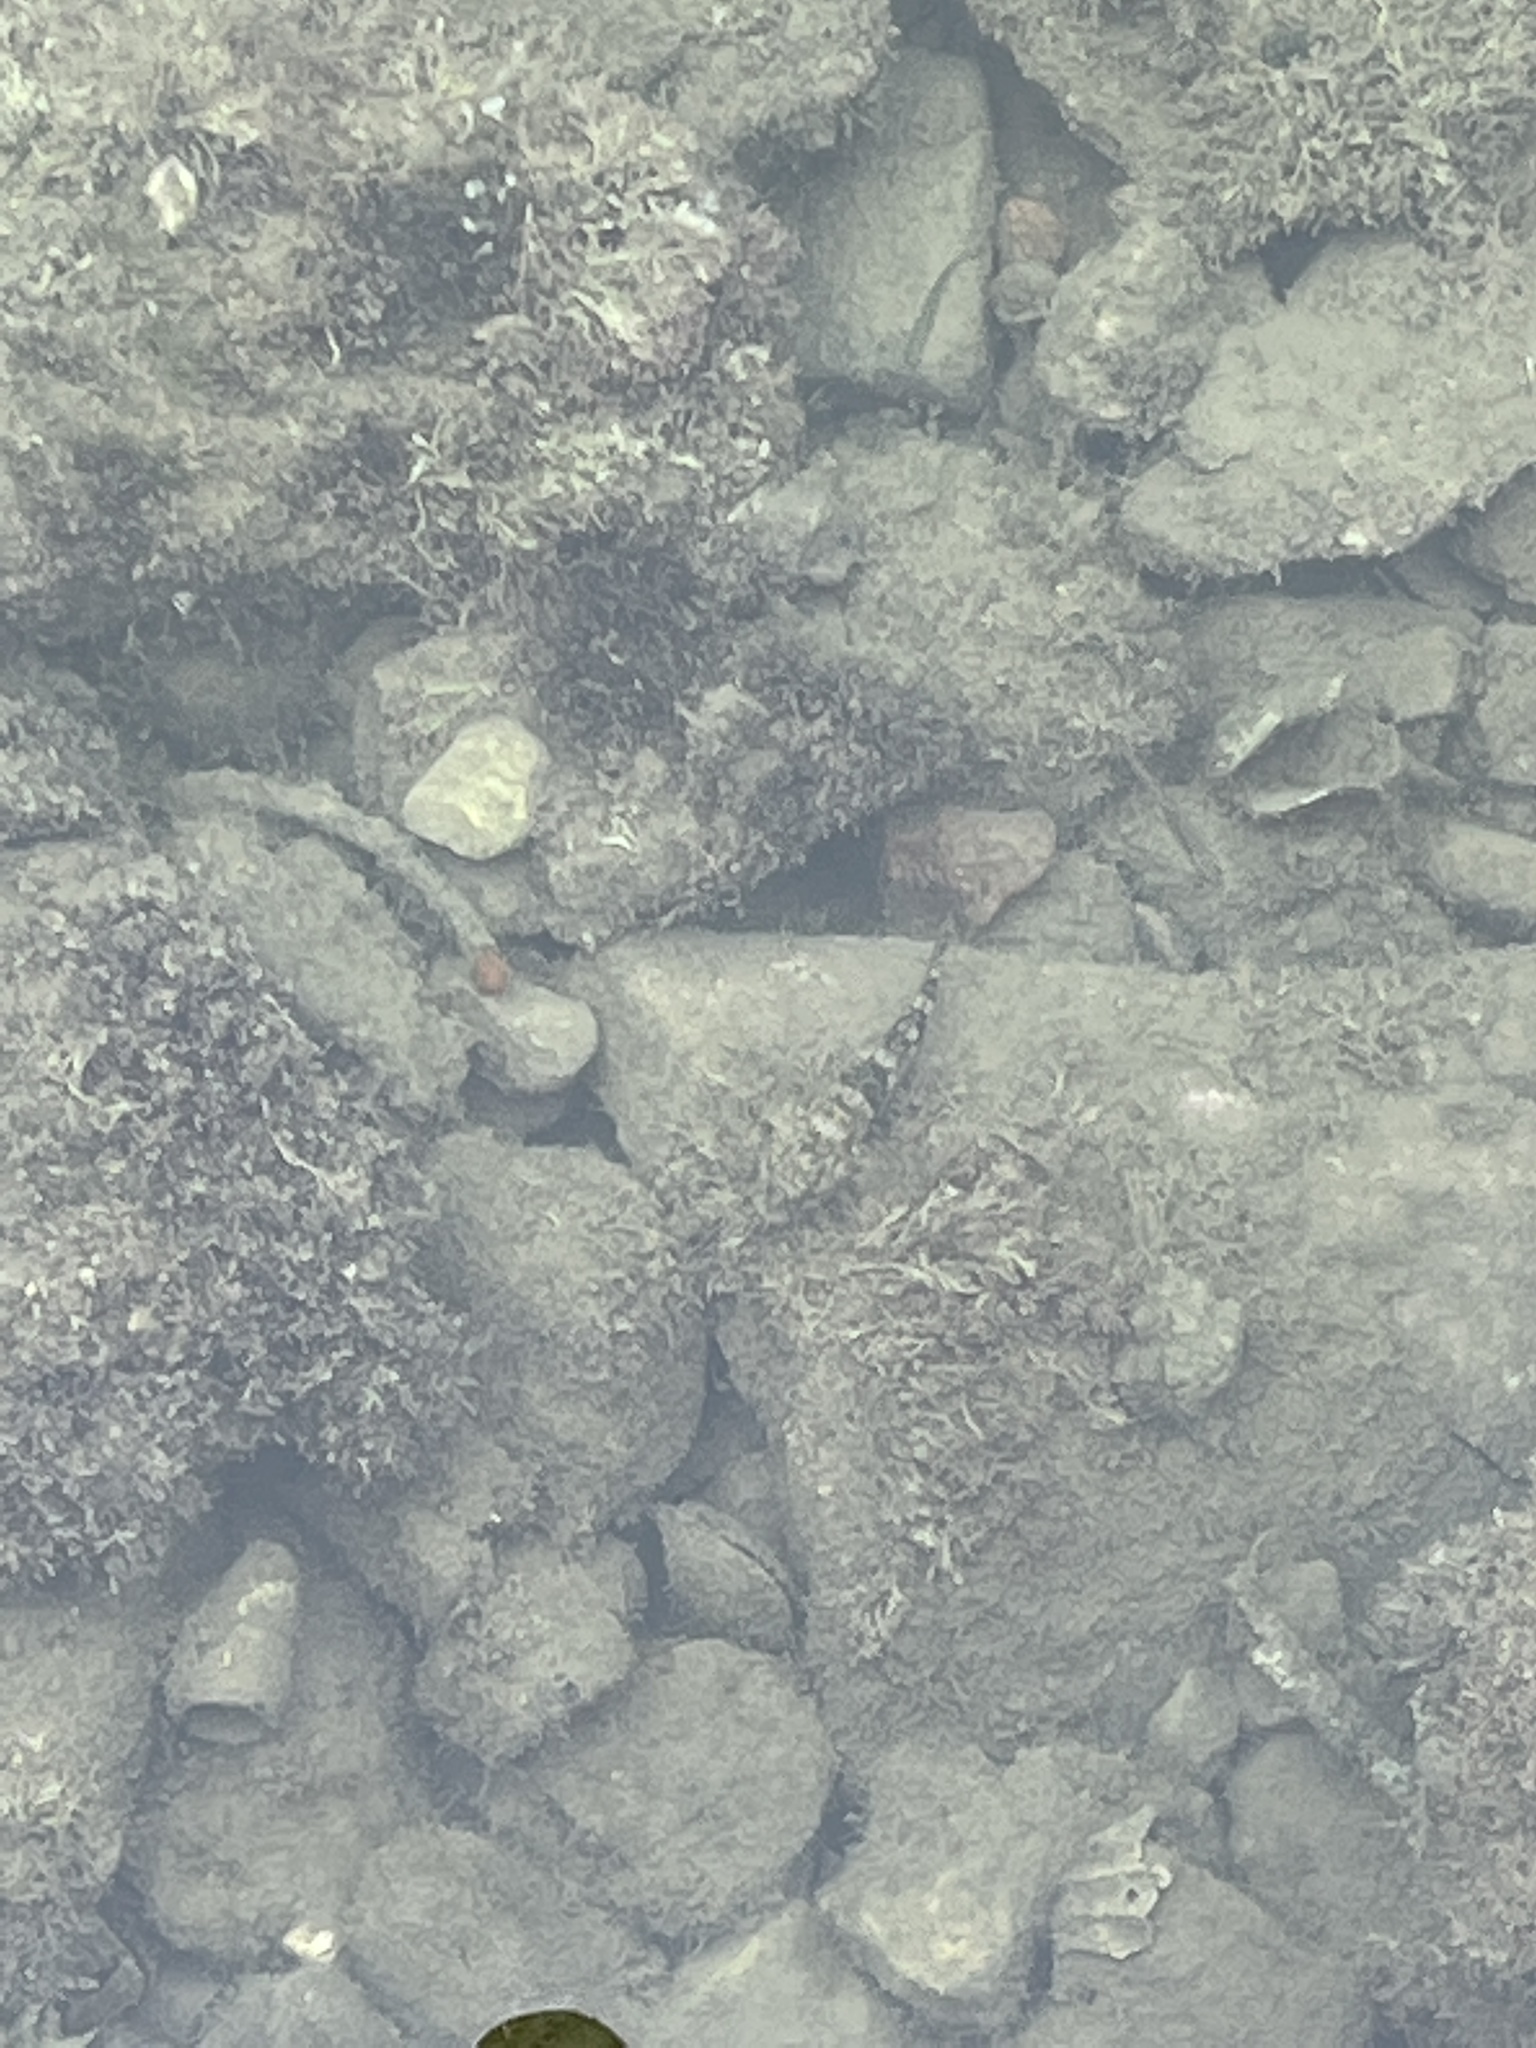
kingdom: Animalia
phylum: Chordata
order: Perciformes
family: Gobiidae
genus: Gobius
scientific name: Gobius cobitis
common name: Giant goby
